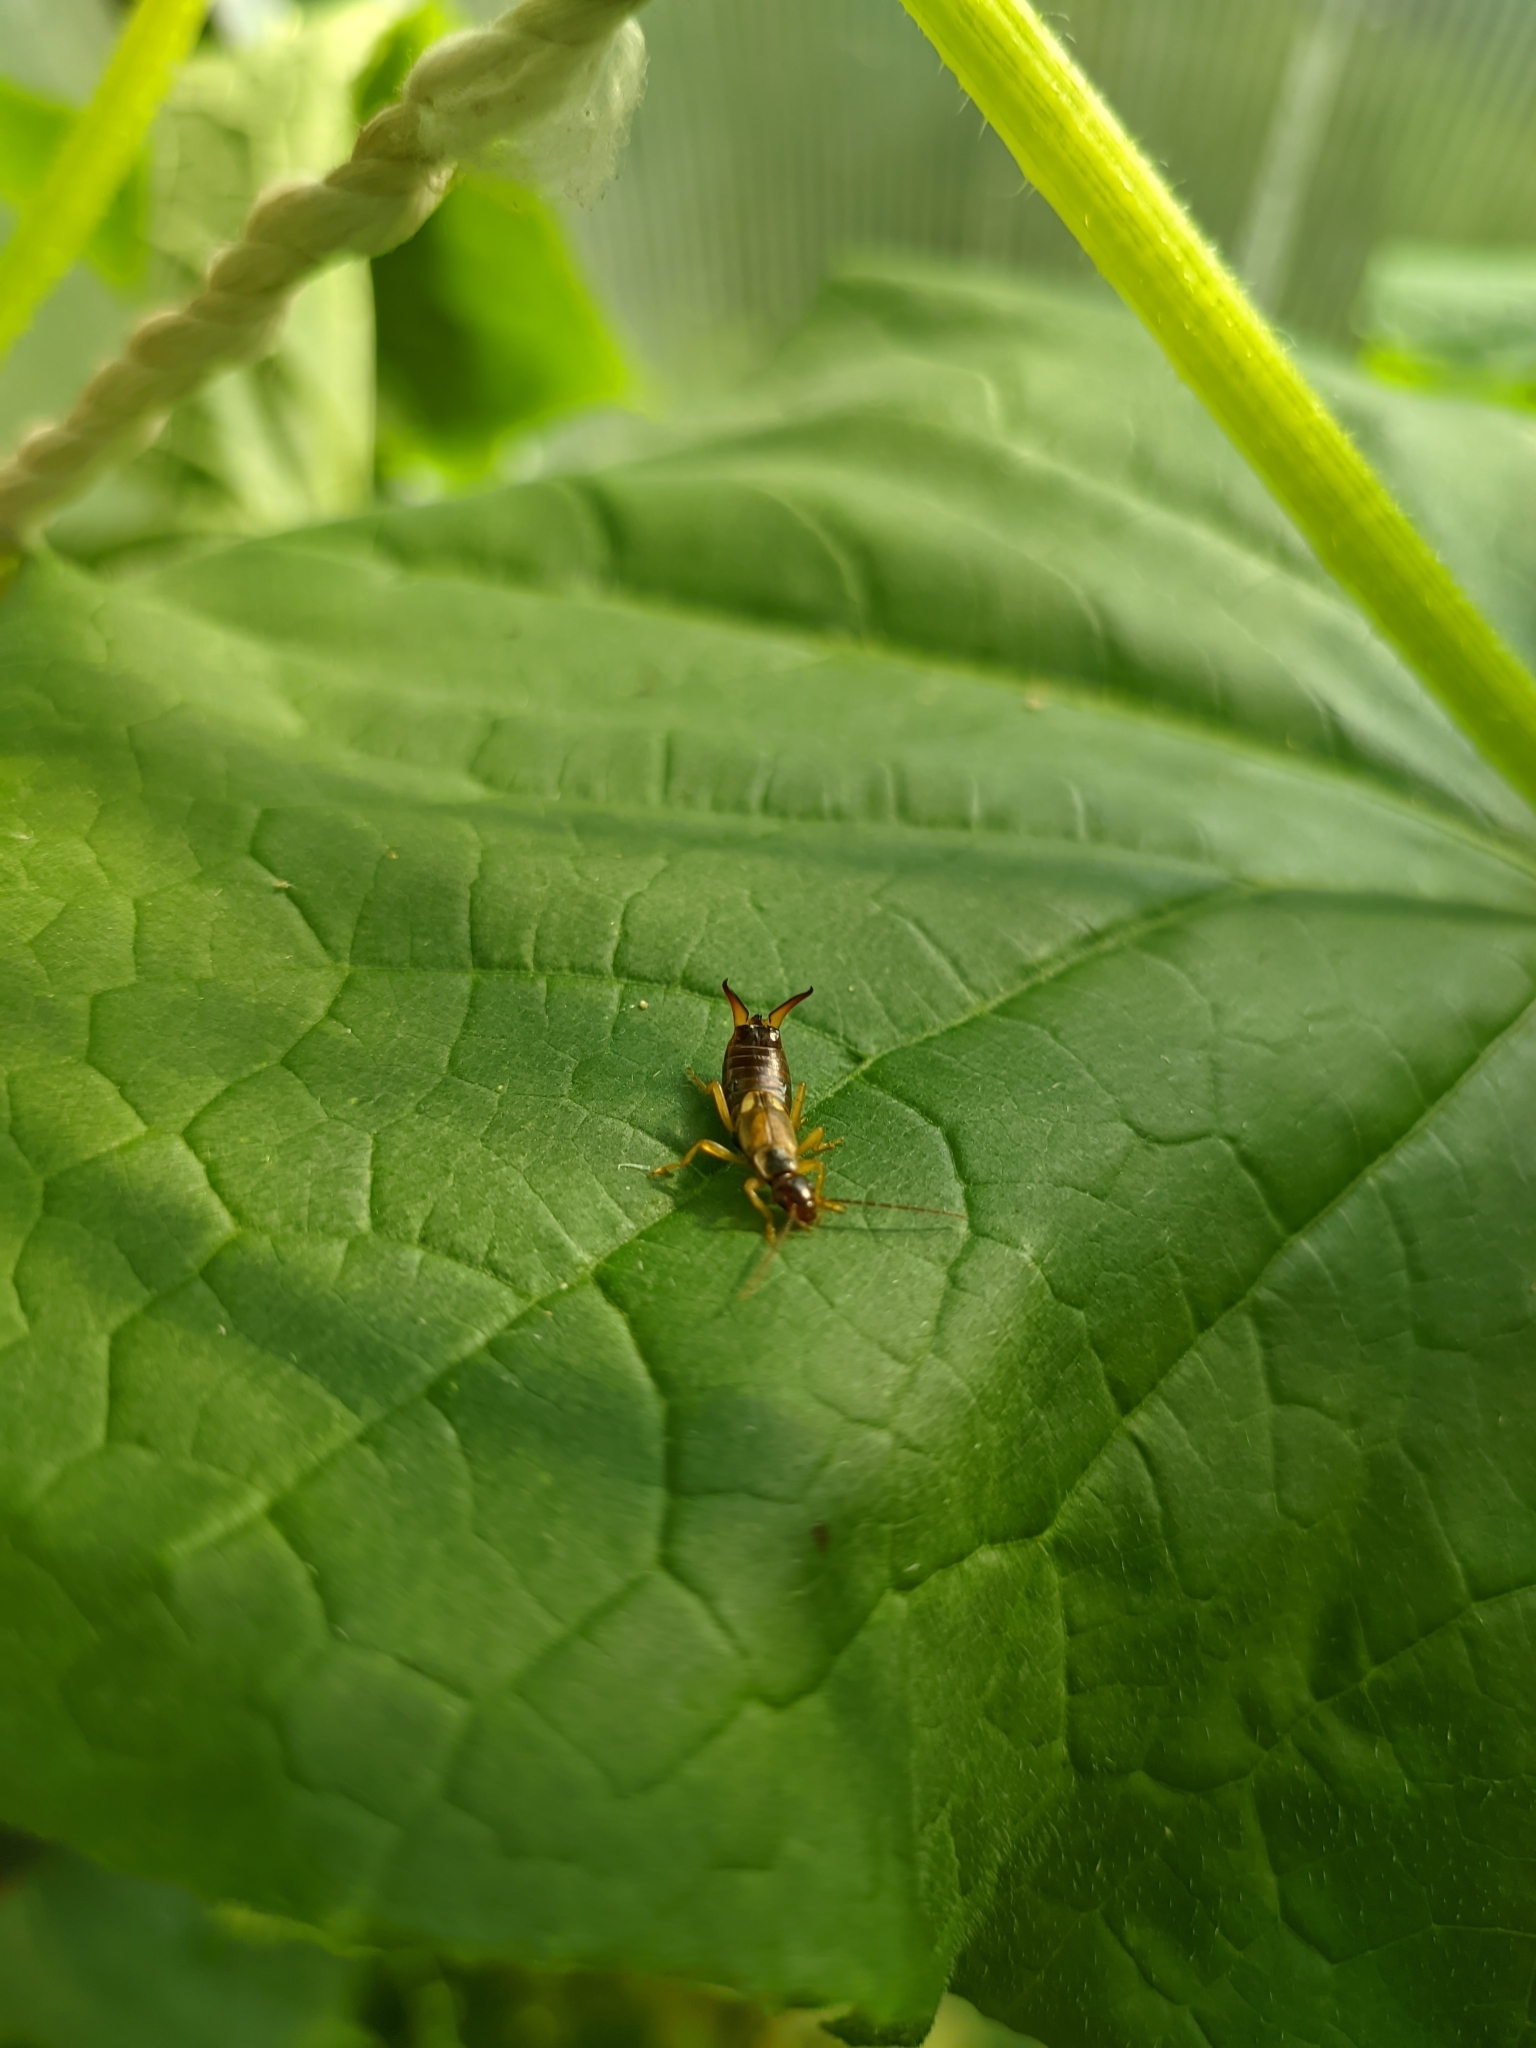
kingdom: Animalia
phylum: Arthropoda
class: Insecta
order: Dermaptera
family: Forficulidae
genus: Forficula
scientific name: Forficula
